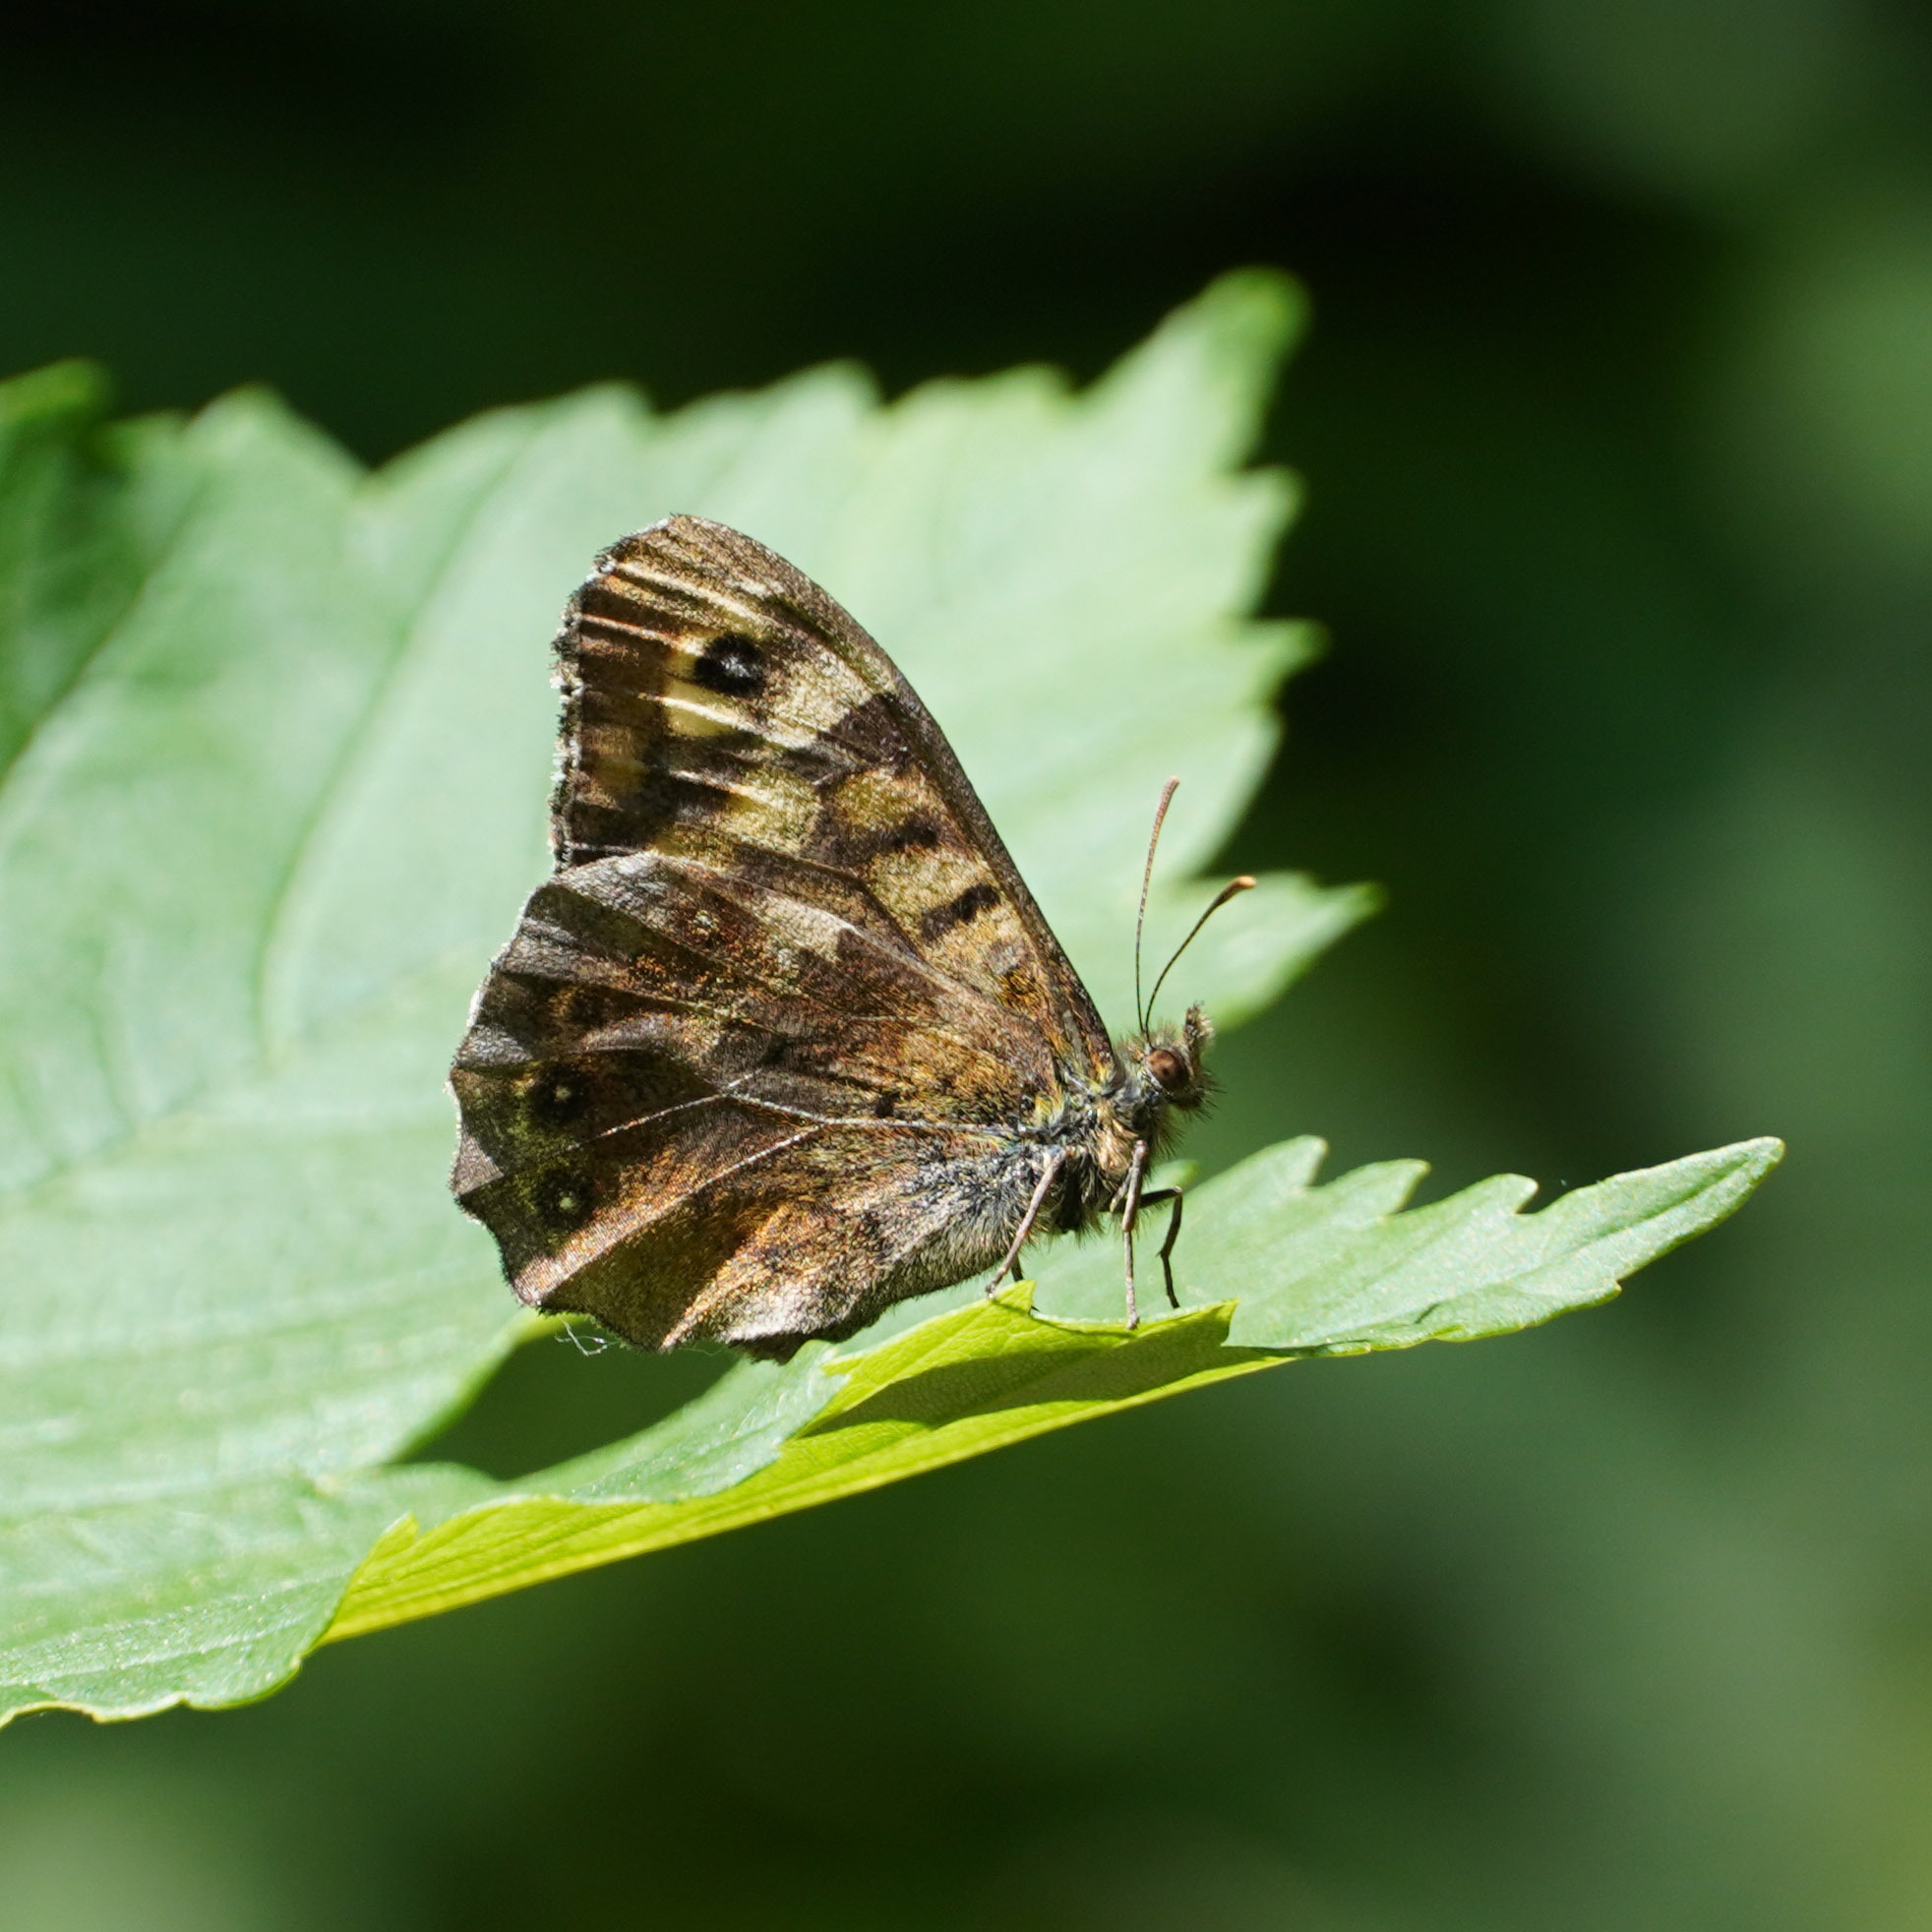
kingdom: Animalia
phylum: Arthropoda
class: Insecta
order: Lepidoptera
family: Nymphalidae
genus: Pararge
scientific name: Pararge aegeria
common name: Speckled wood
